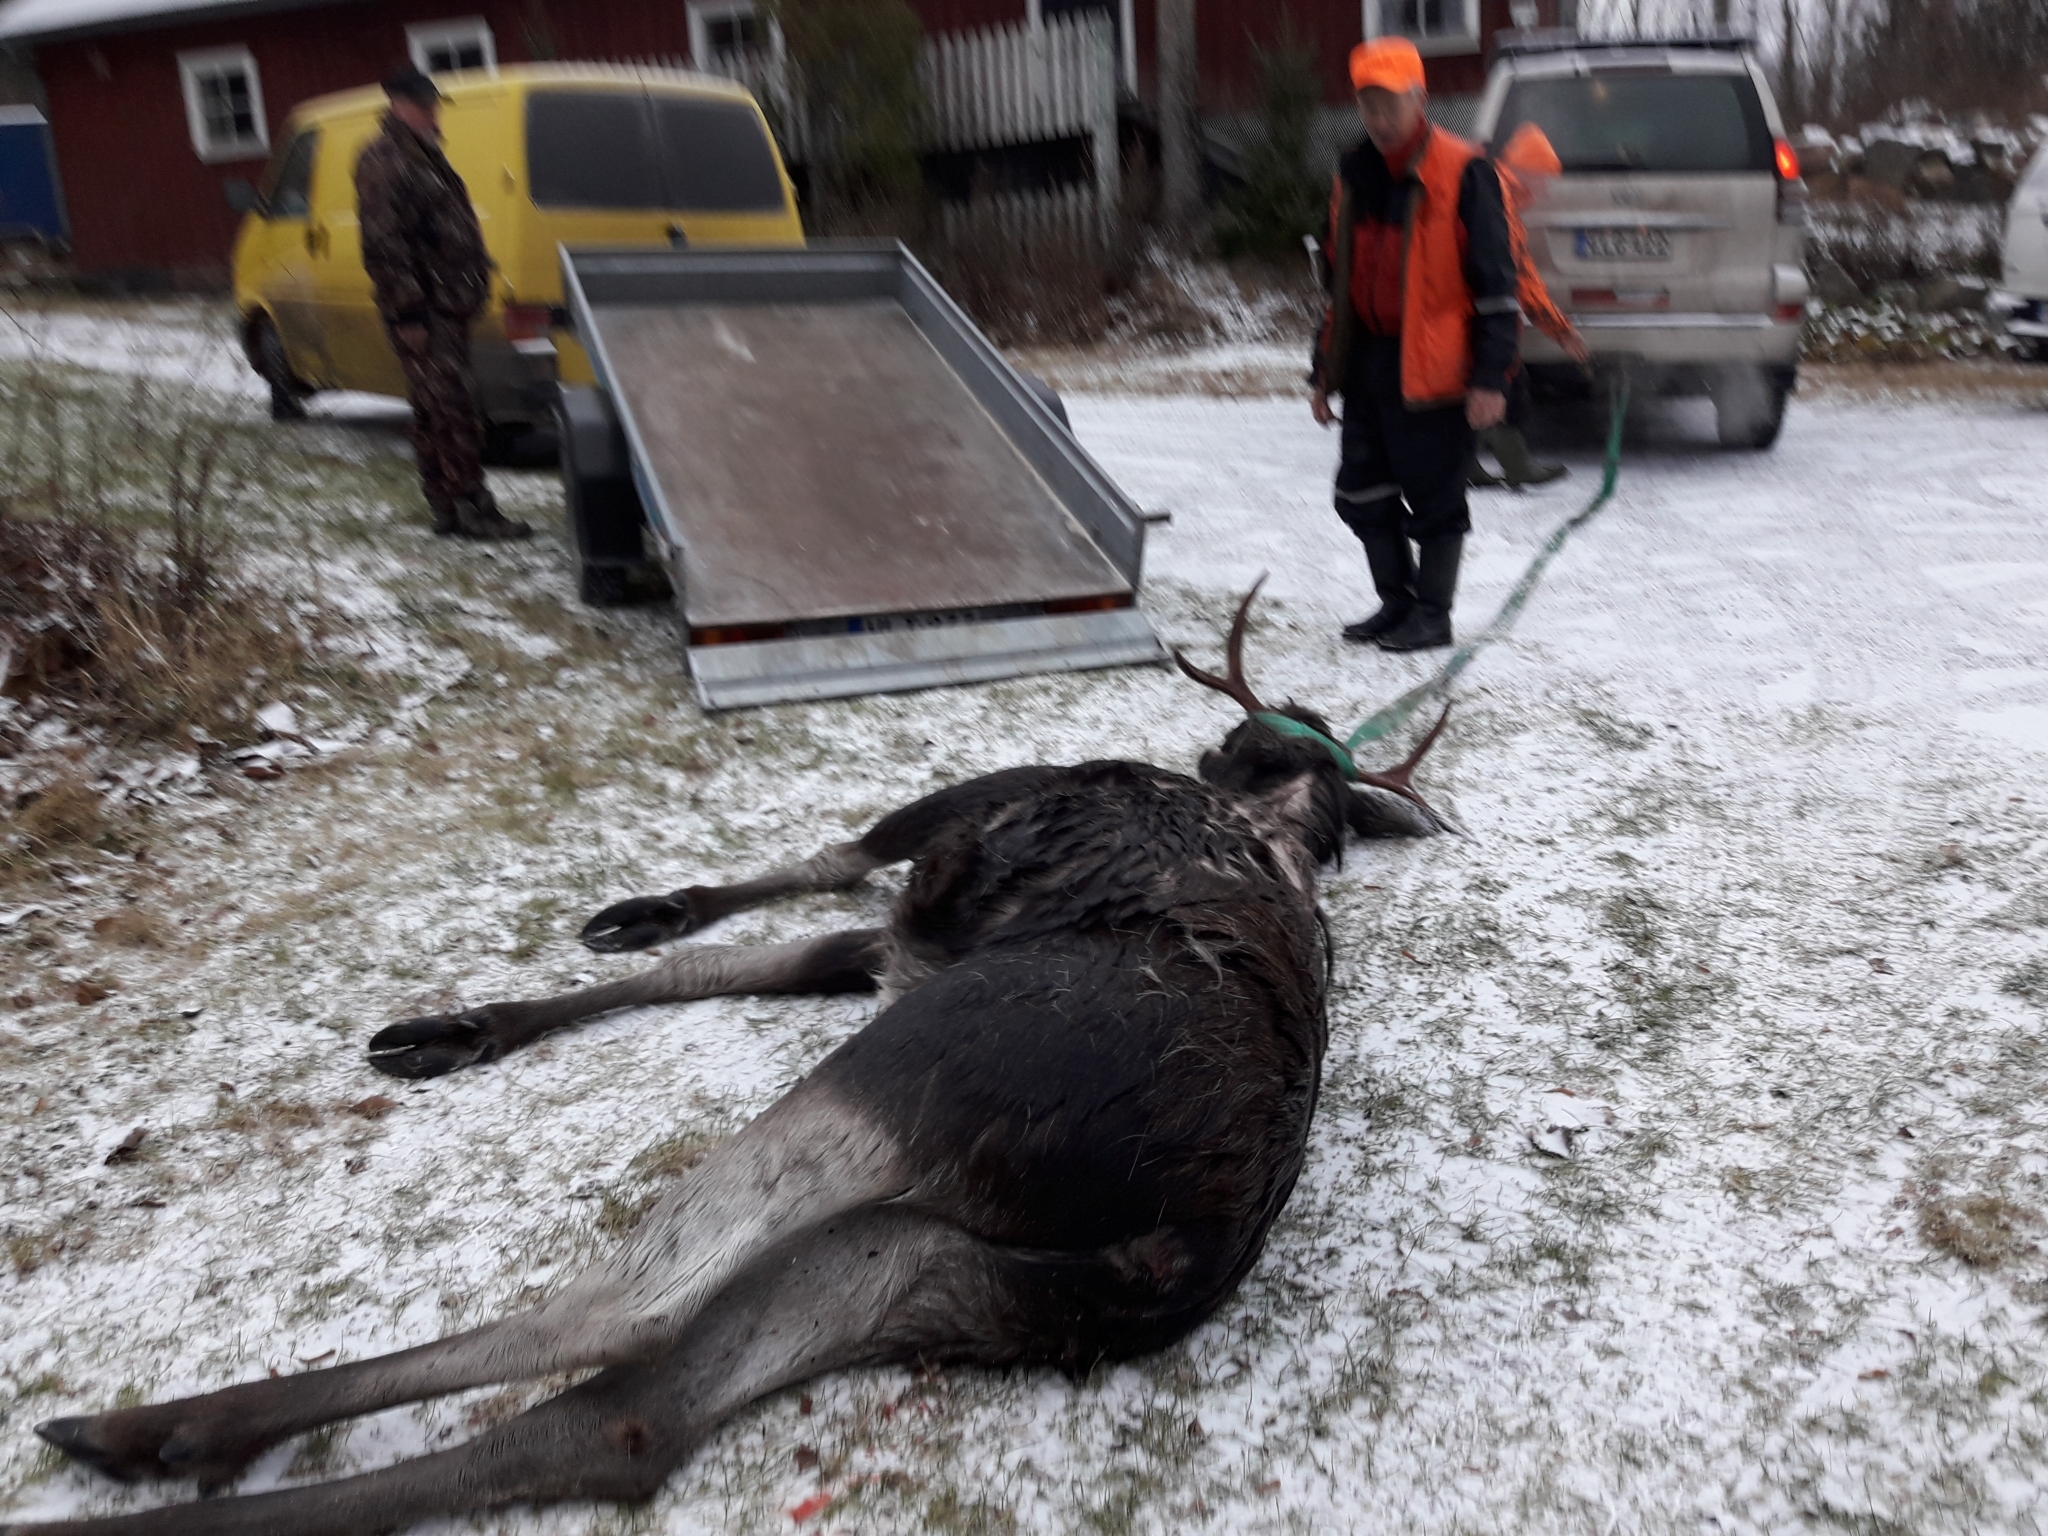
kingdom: Animalia
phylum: Chordata
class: Mammalia
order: Artiodactyla
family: Cervidae
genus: Alces
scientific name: Alces alces
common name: Moose
